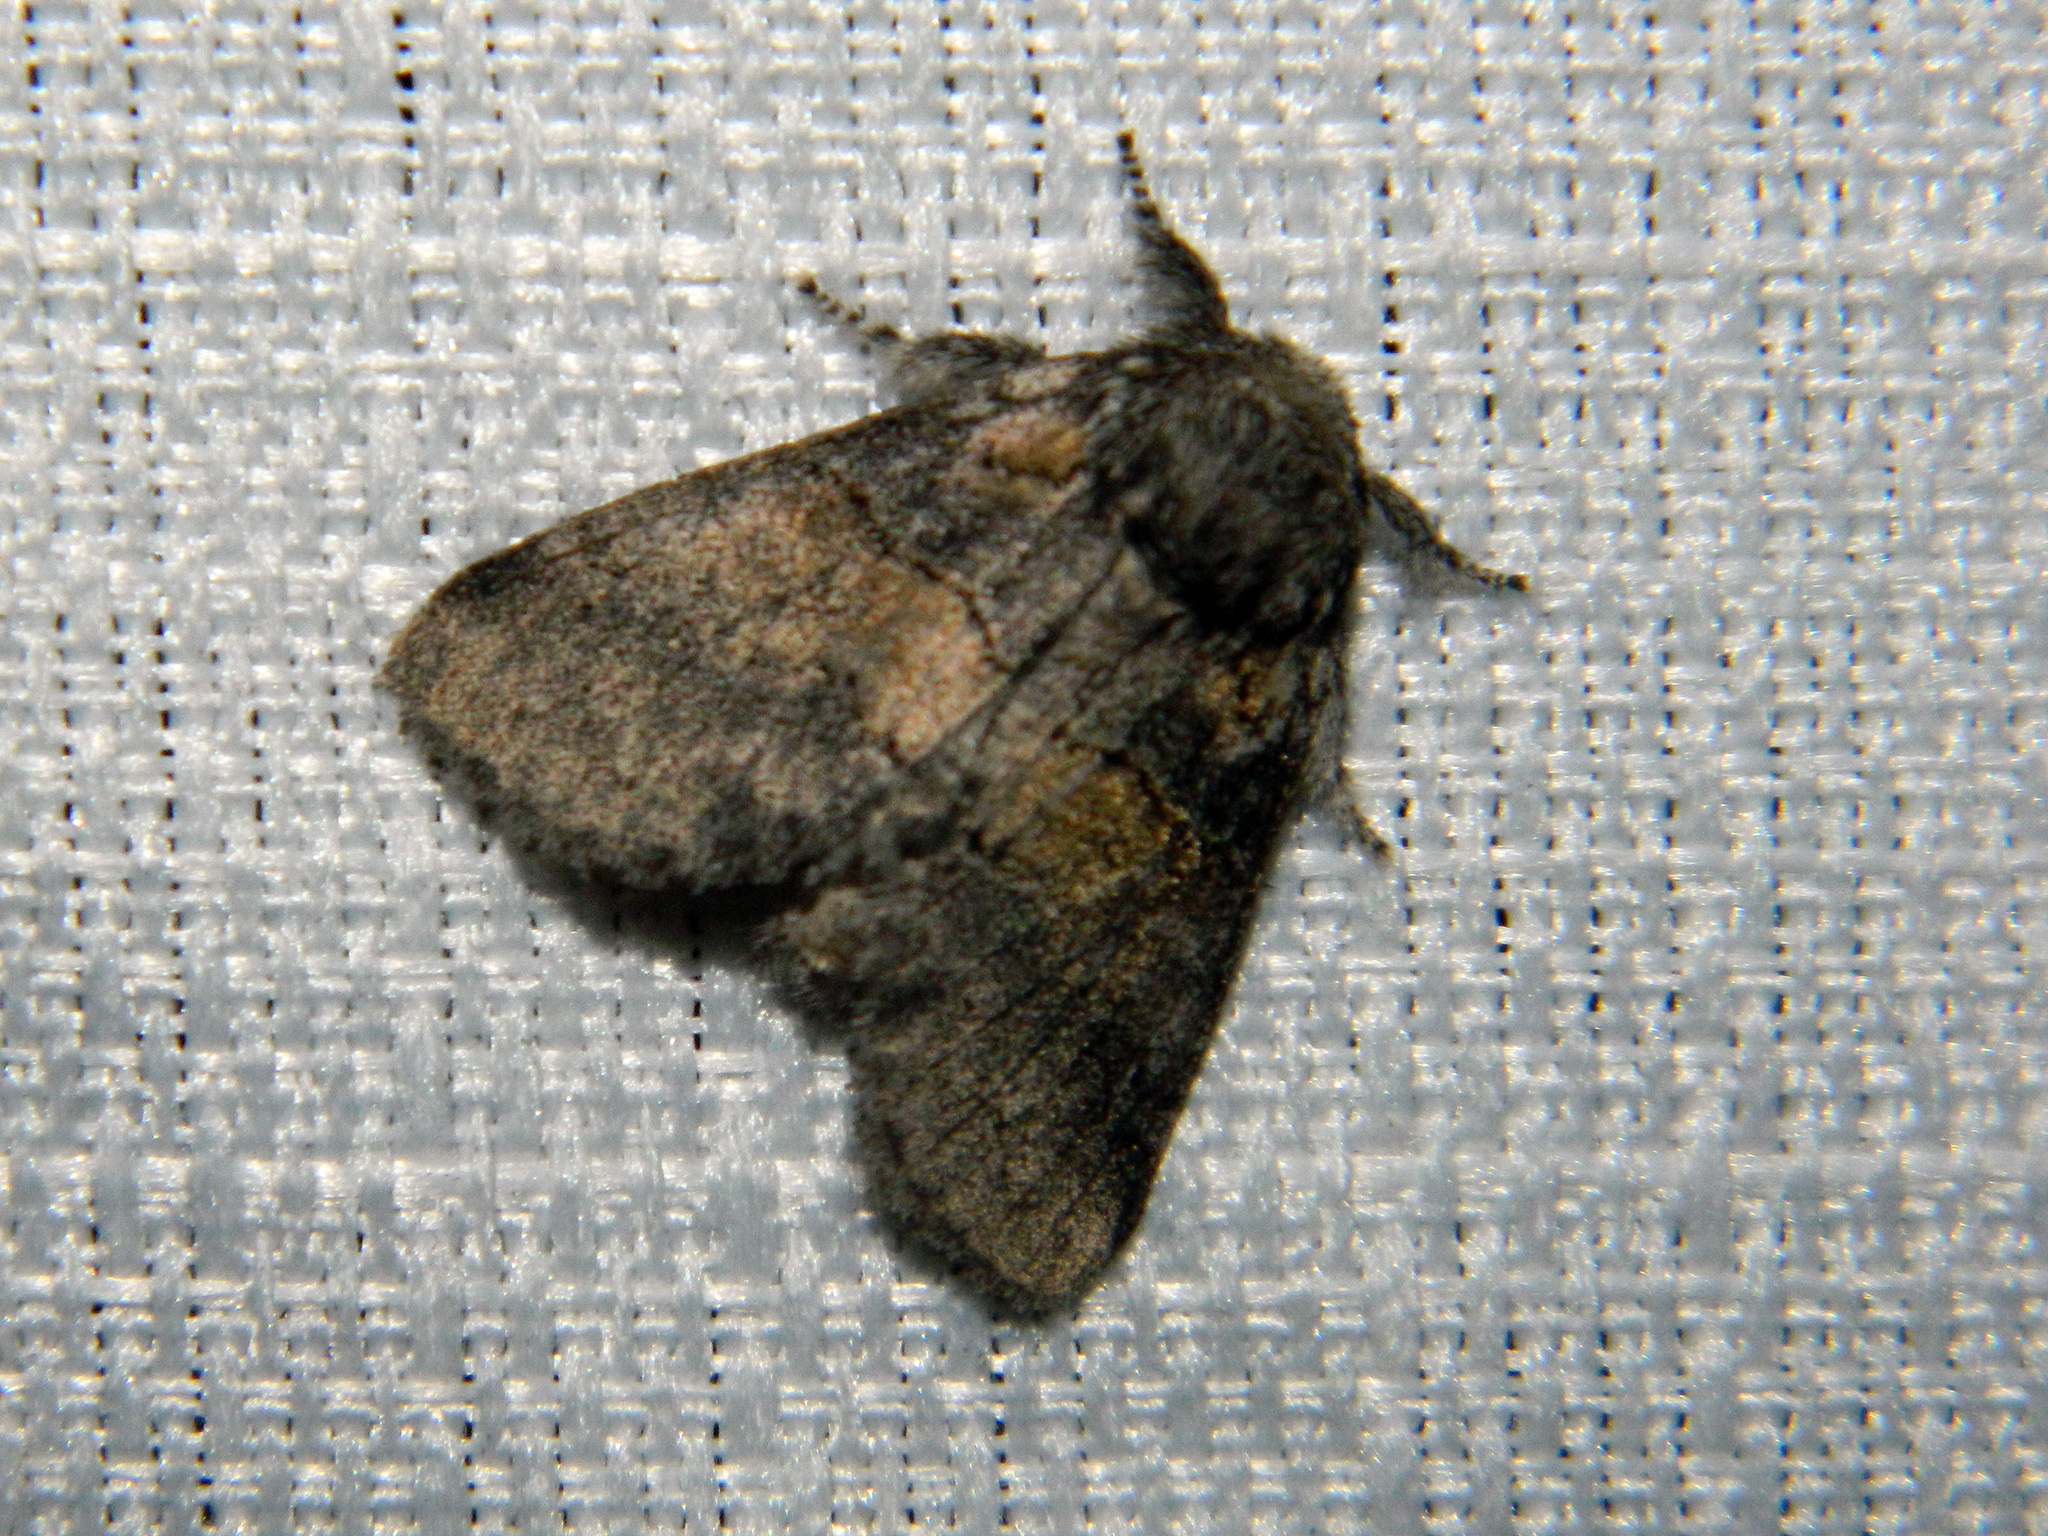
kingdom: Animalia
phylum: Arthropoda
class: Insecta
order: Lepidoptera
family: Notodontidae
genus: Gluphisia
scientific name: Gluphisia septentrionis
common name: Common gluphisia
